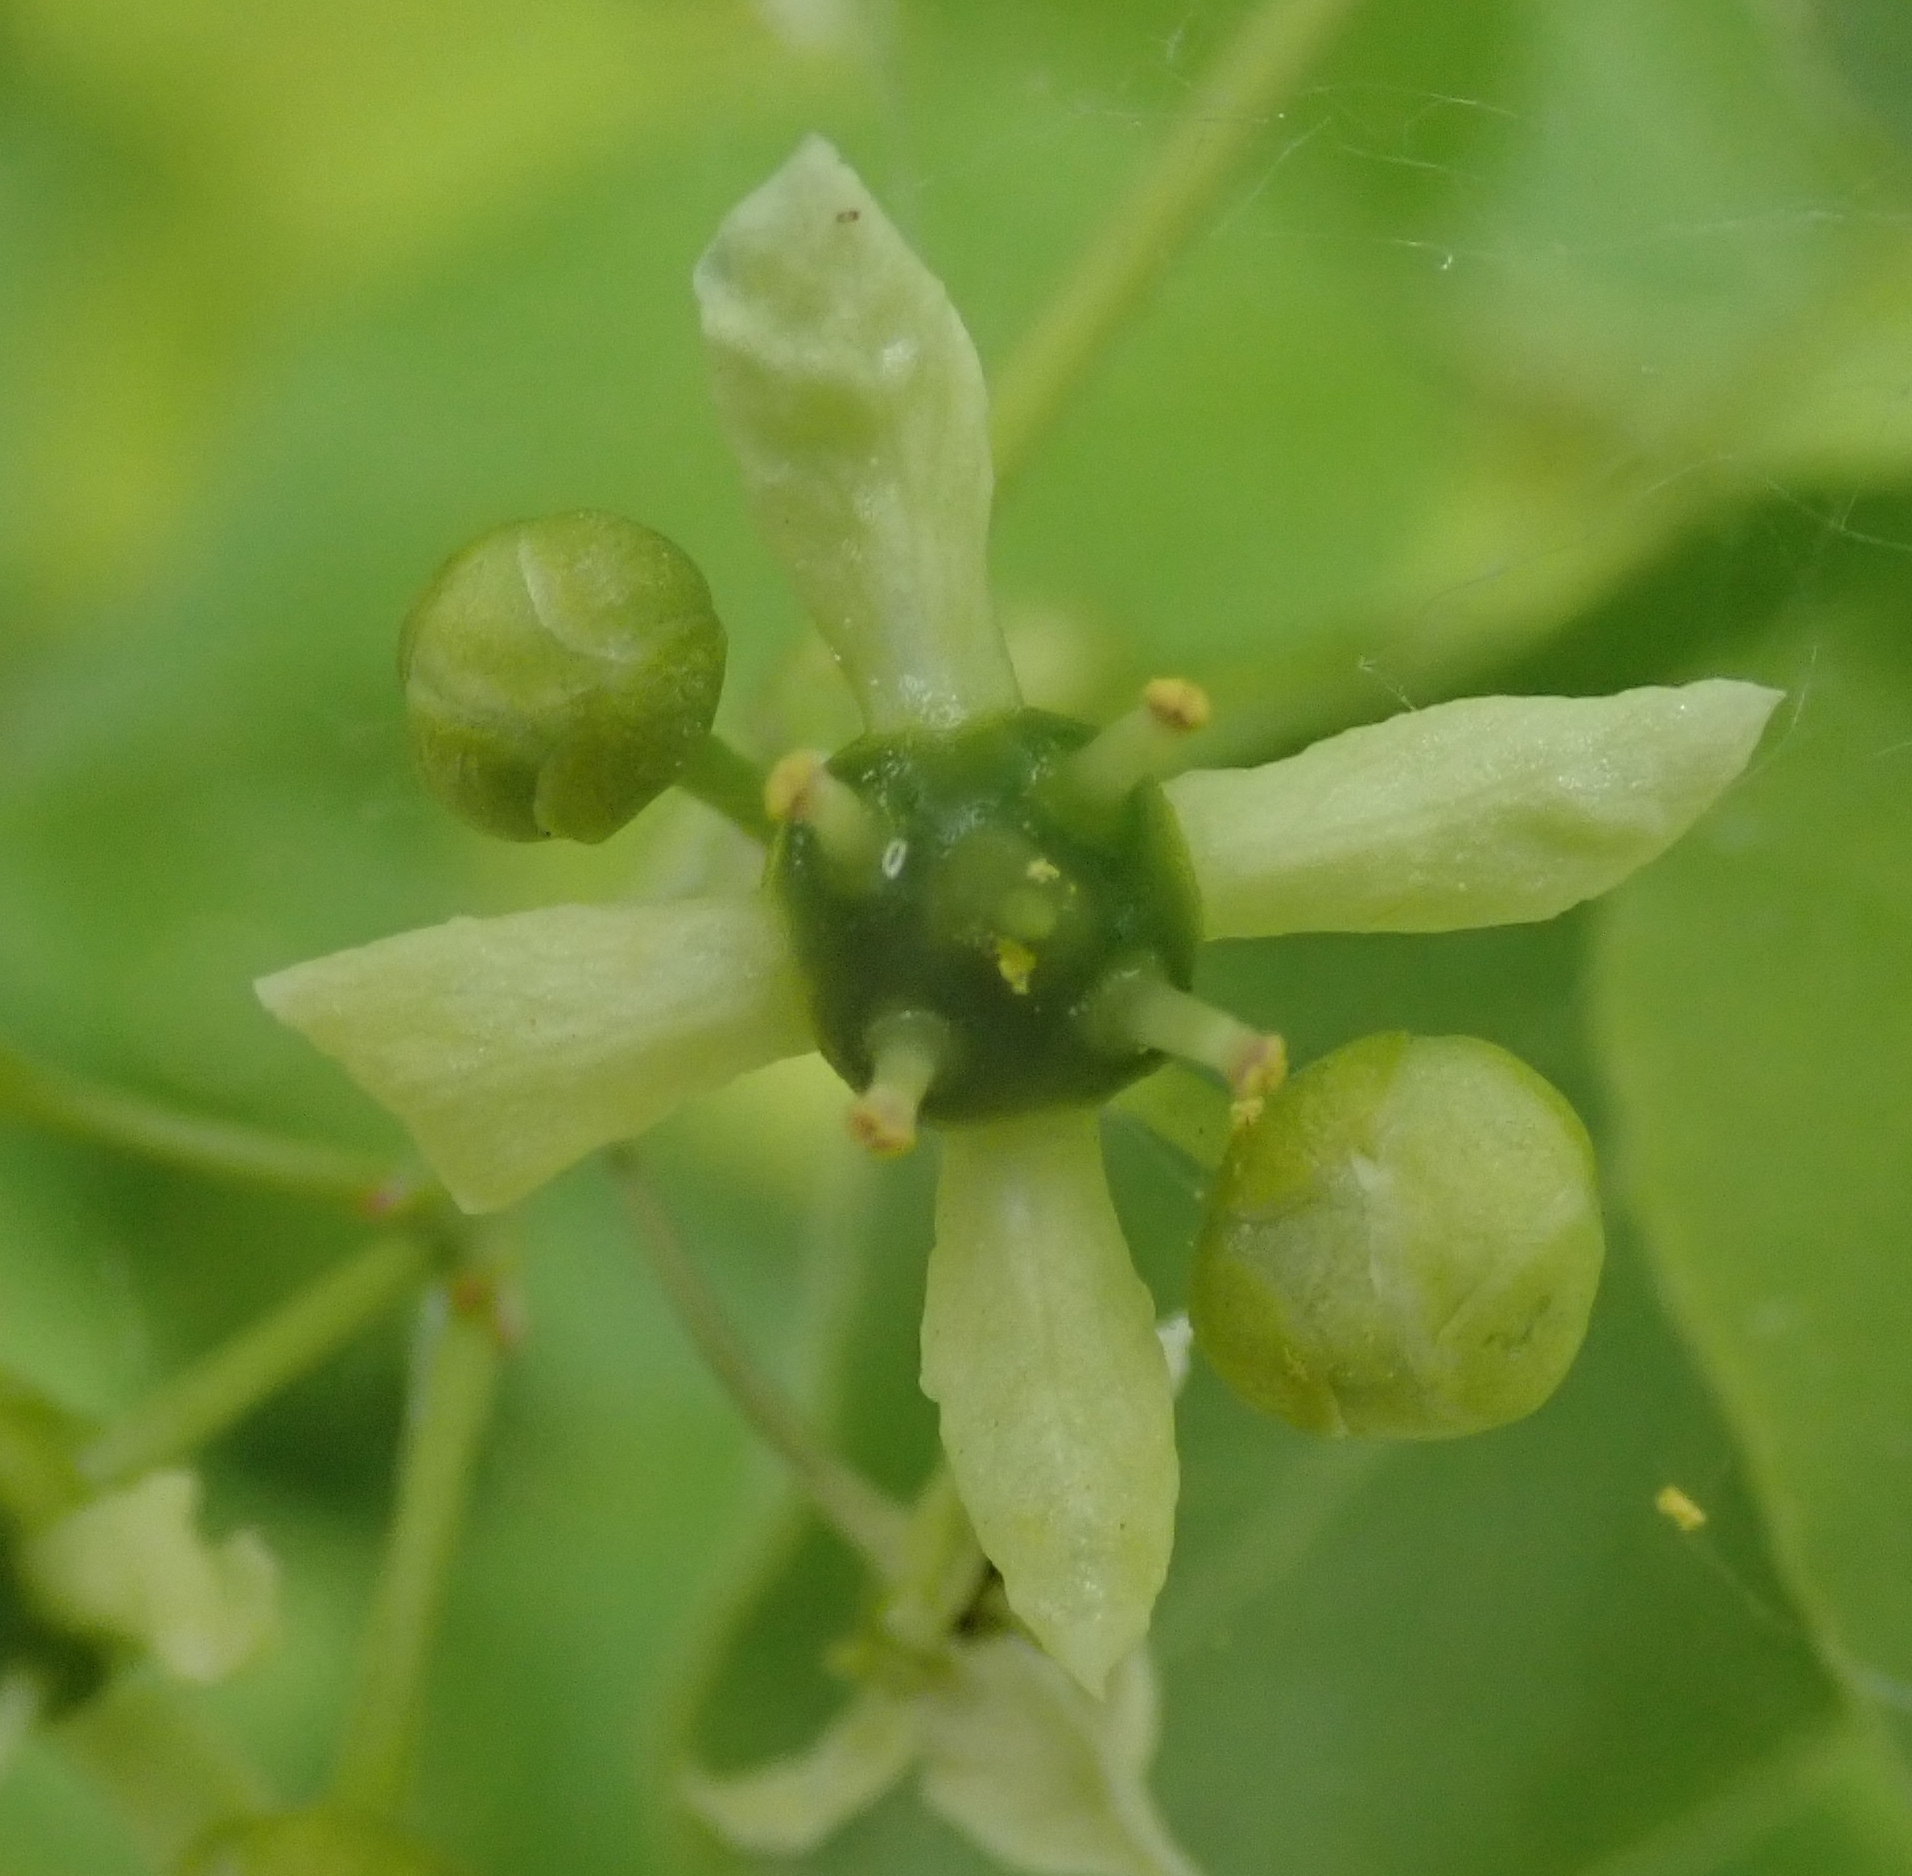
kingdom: Plantae
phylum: Tracheophyta
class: Magnoliopsida
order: Celastrales
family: Celastraceae
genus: Euonymus
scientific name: Euonymus europaeus
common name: Spindle
